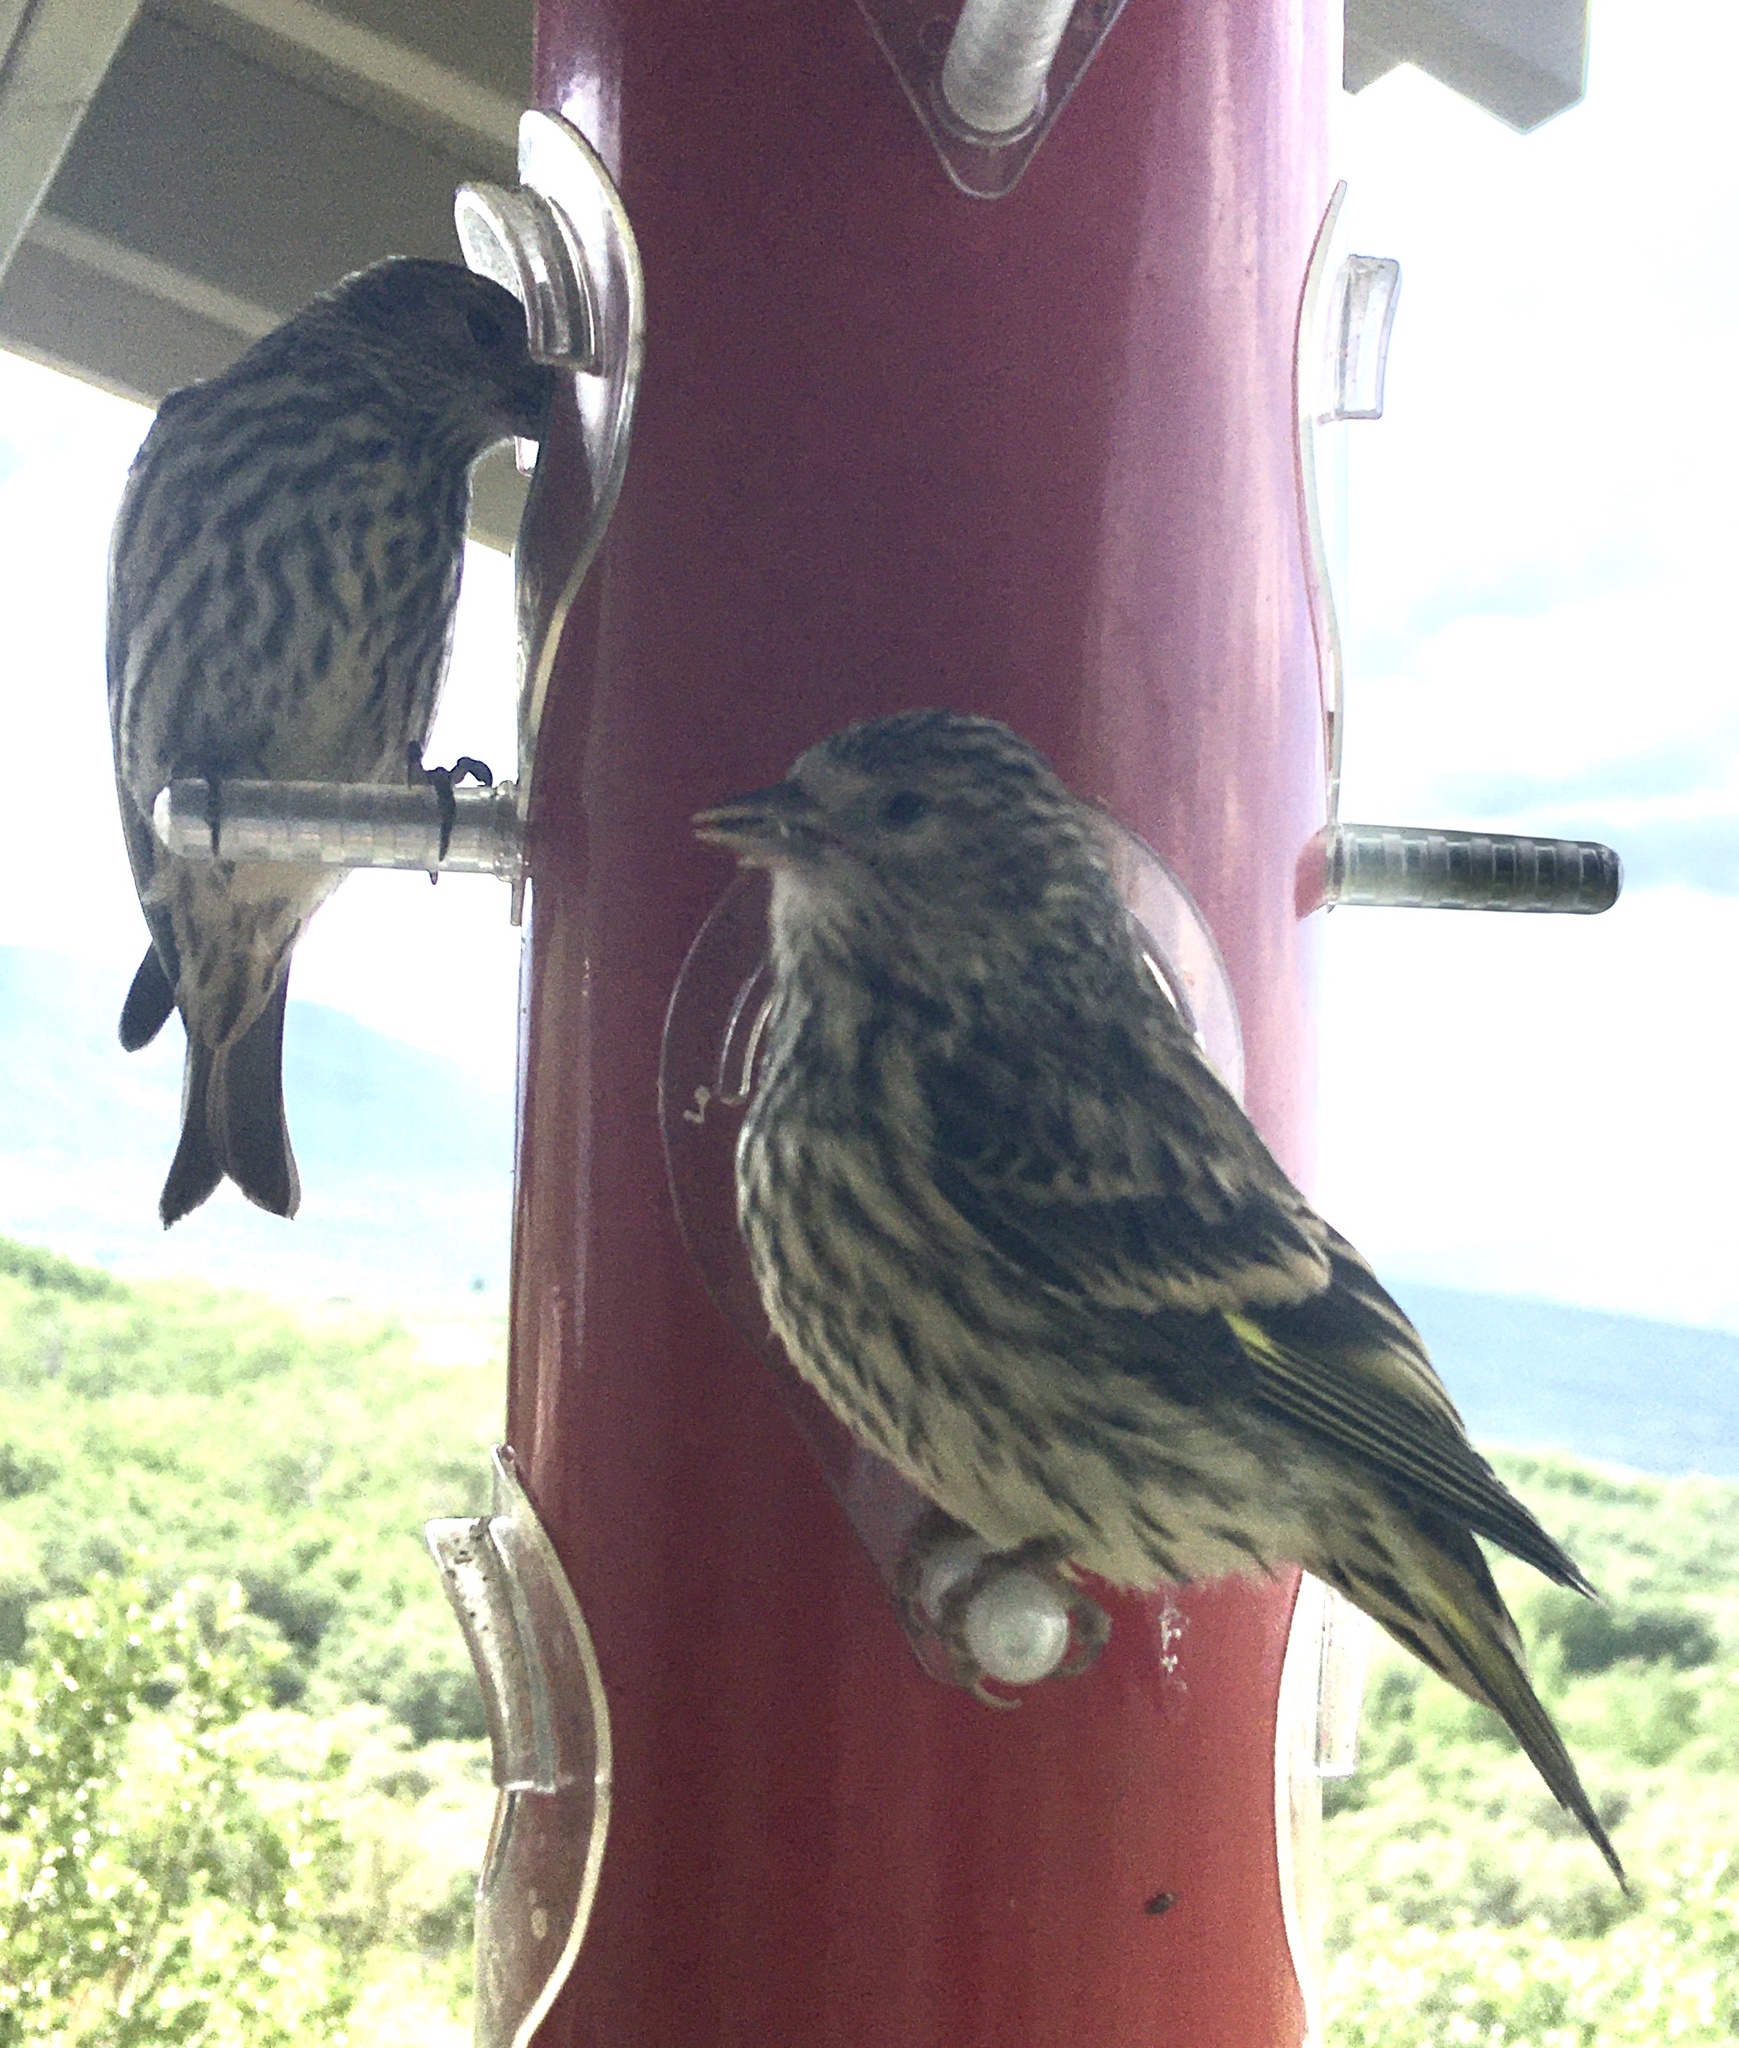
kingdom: Animalia
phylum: Chordata
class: Aves
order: Passeriformes
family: Fringillidae
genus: Spinus
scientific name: Spinus pinus
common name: Pine siskin
